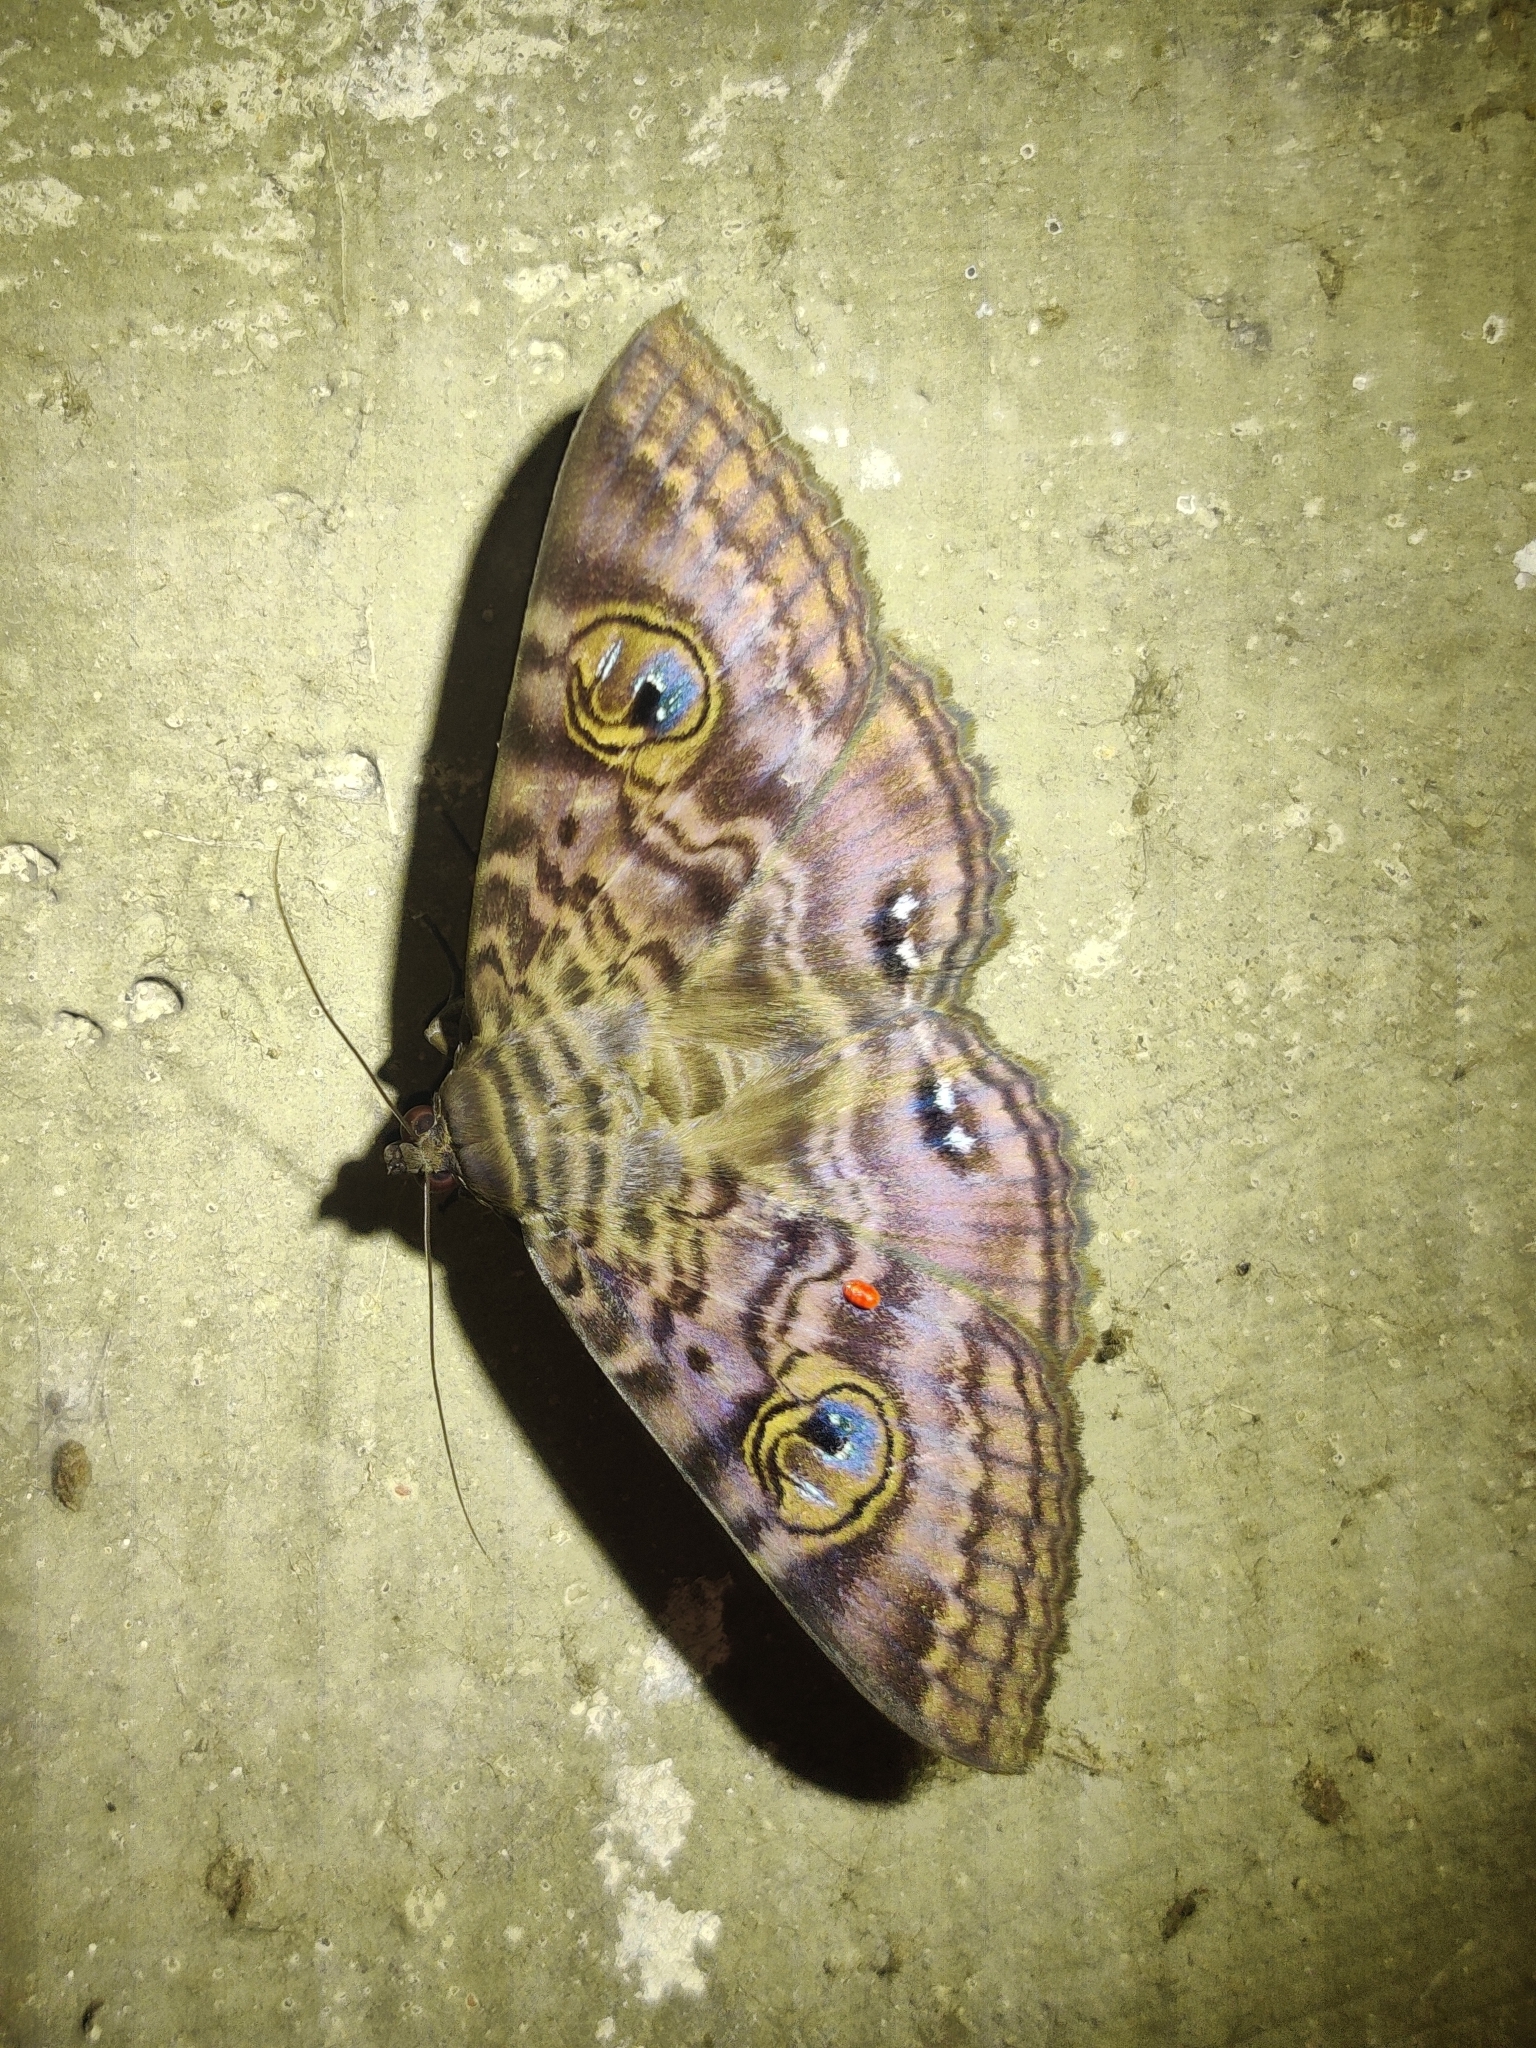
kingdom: Animalia
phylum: Arthropoda
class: Insecta
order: Lepidoptera
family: Erebidae
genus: Speiredonia
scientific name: Speiredonia spectans
